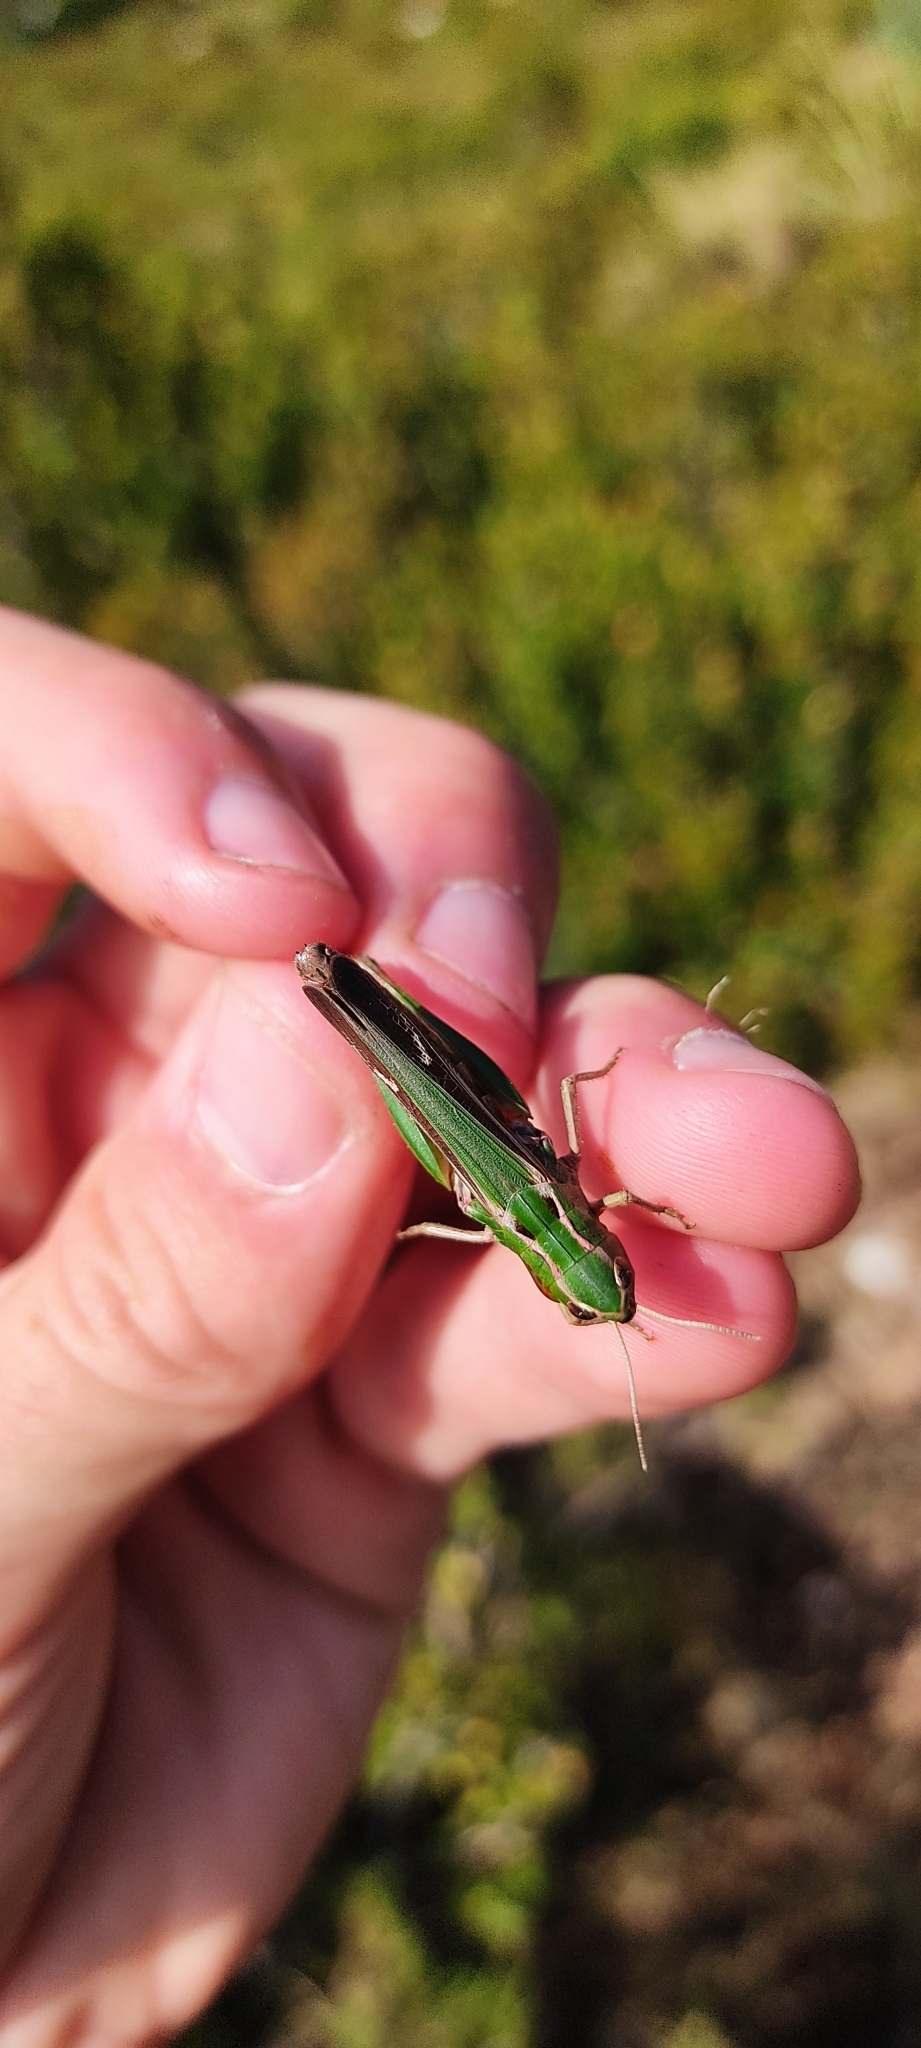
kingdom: Animalia
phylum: Arthropoda
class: Insecta
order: Orthoptera
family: Acrididae
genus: Stenobothrus
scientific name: Stenobothrus lineatus
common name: Stripe-winged grasshopper
